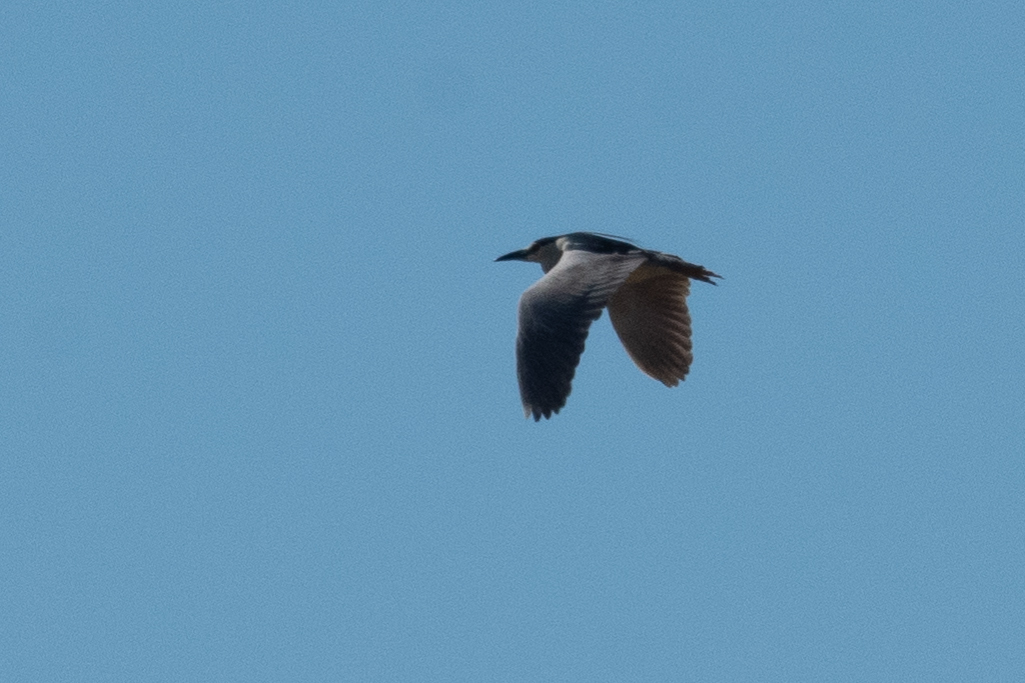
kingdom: Animalia
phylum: Chordata
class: Aves
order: Pelecaniformes
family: Ardeidae
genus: Nycticorax
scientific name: Nycticorax nycticorax
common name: Black-crowned night heron
